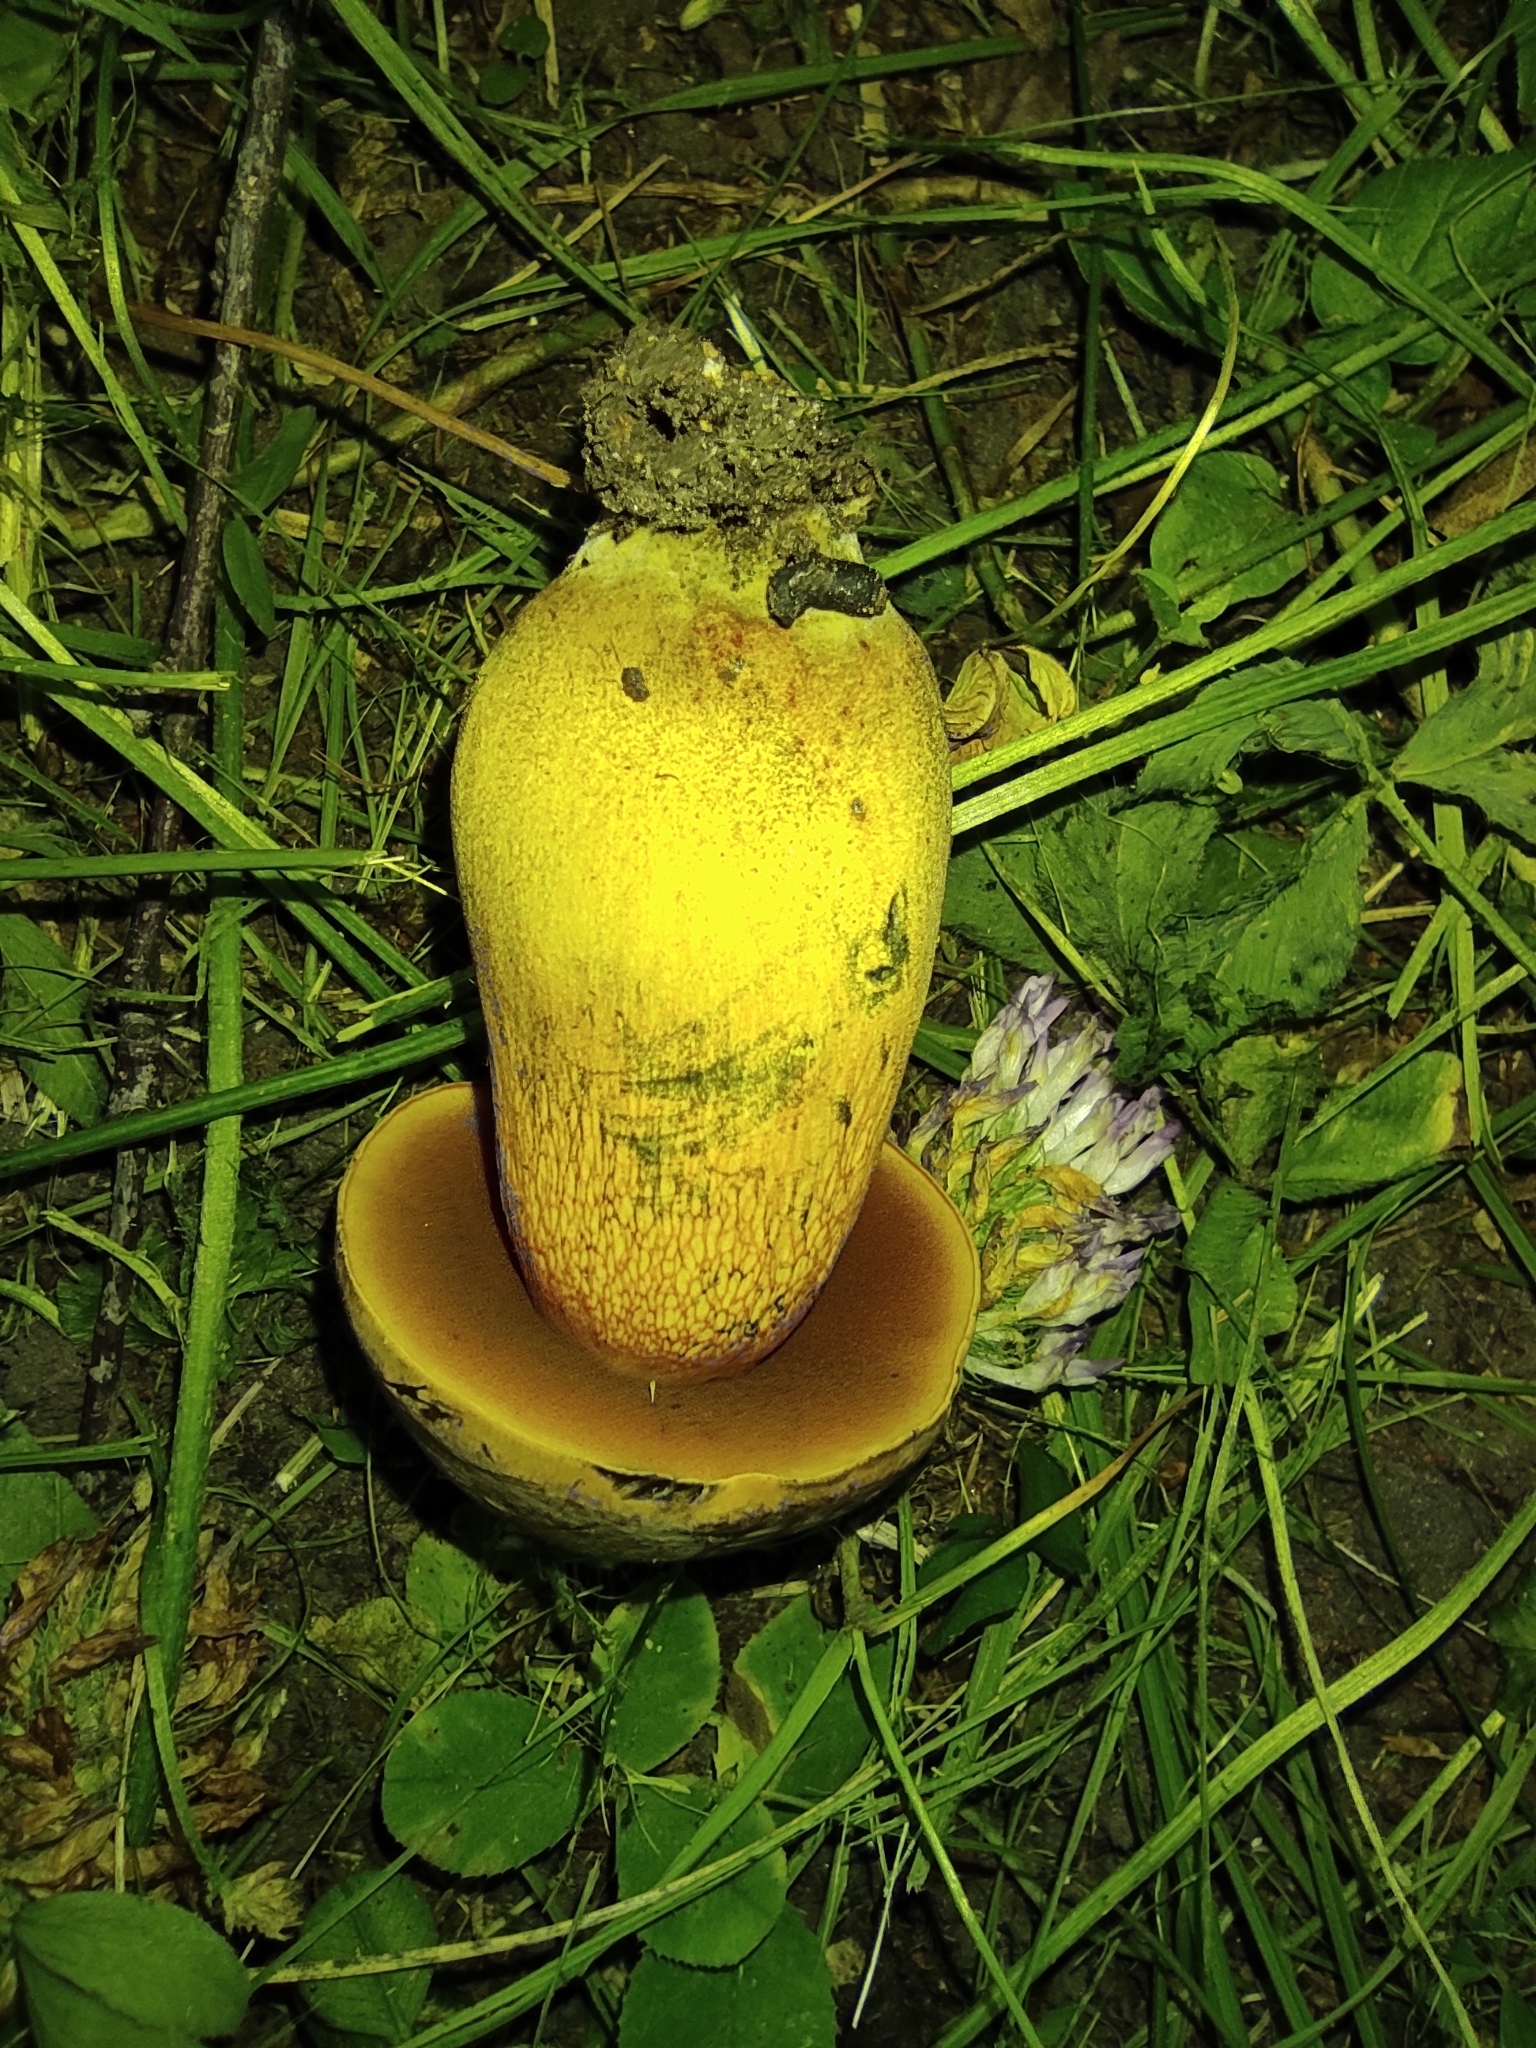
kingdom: Fungi
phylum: Basidiomycota
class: Agaricomycetes
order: Boletales
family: Boletaceae
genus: Suillellus
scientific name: Suillellus luridus
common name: Lurid bolete
